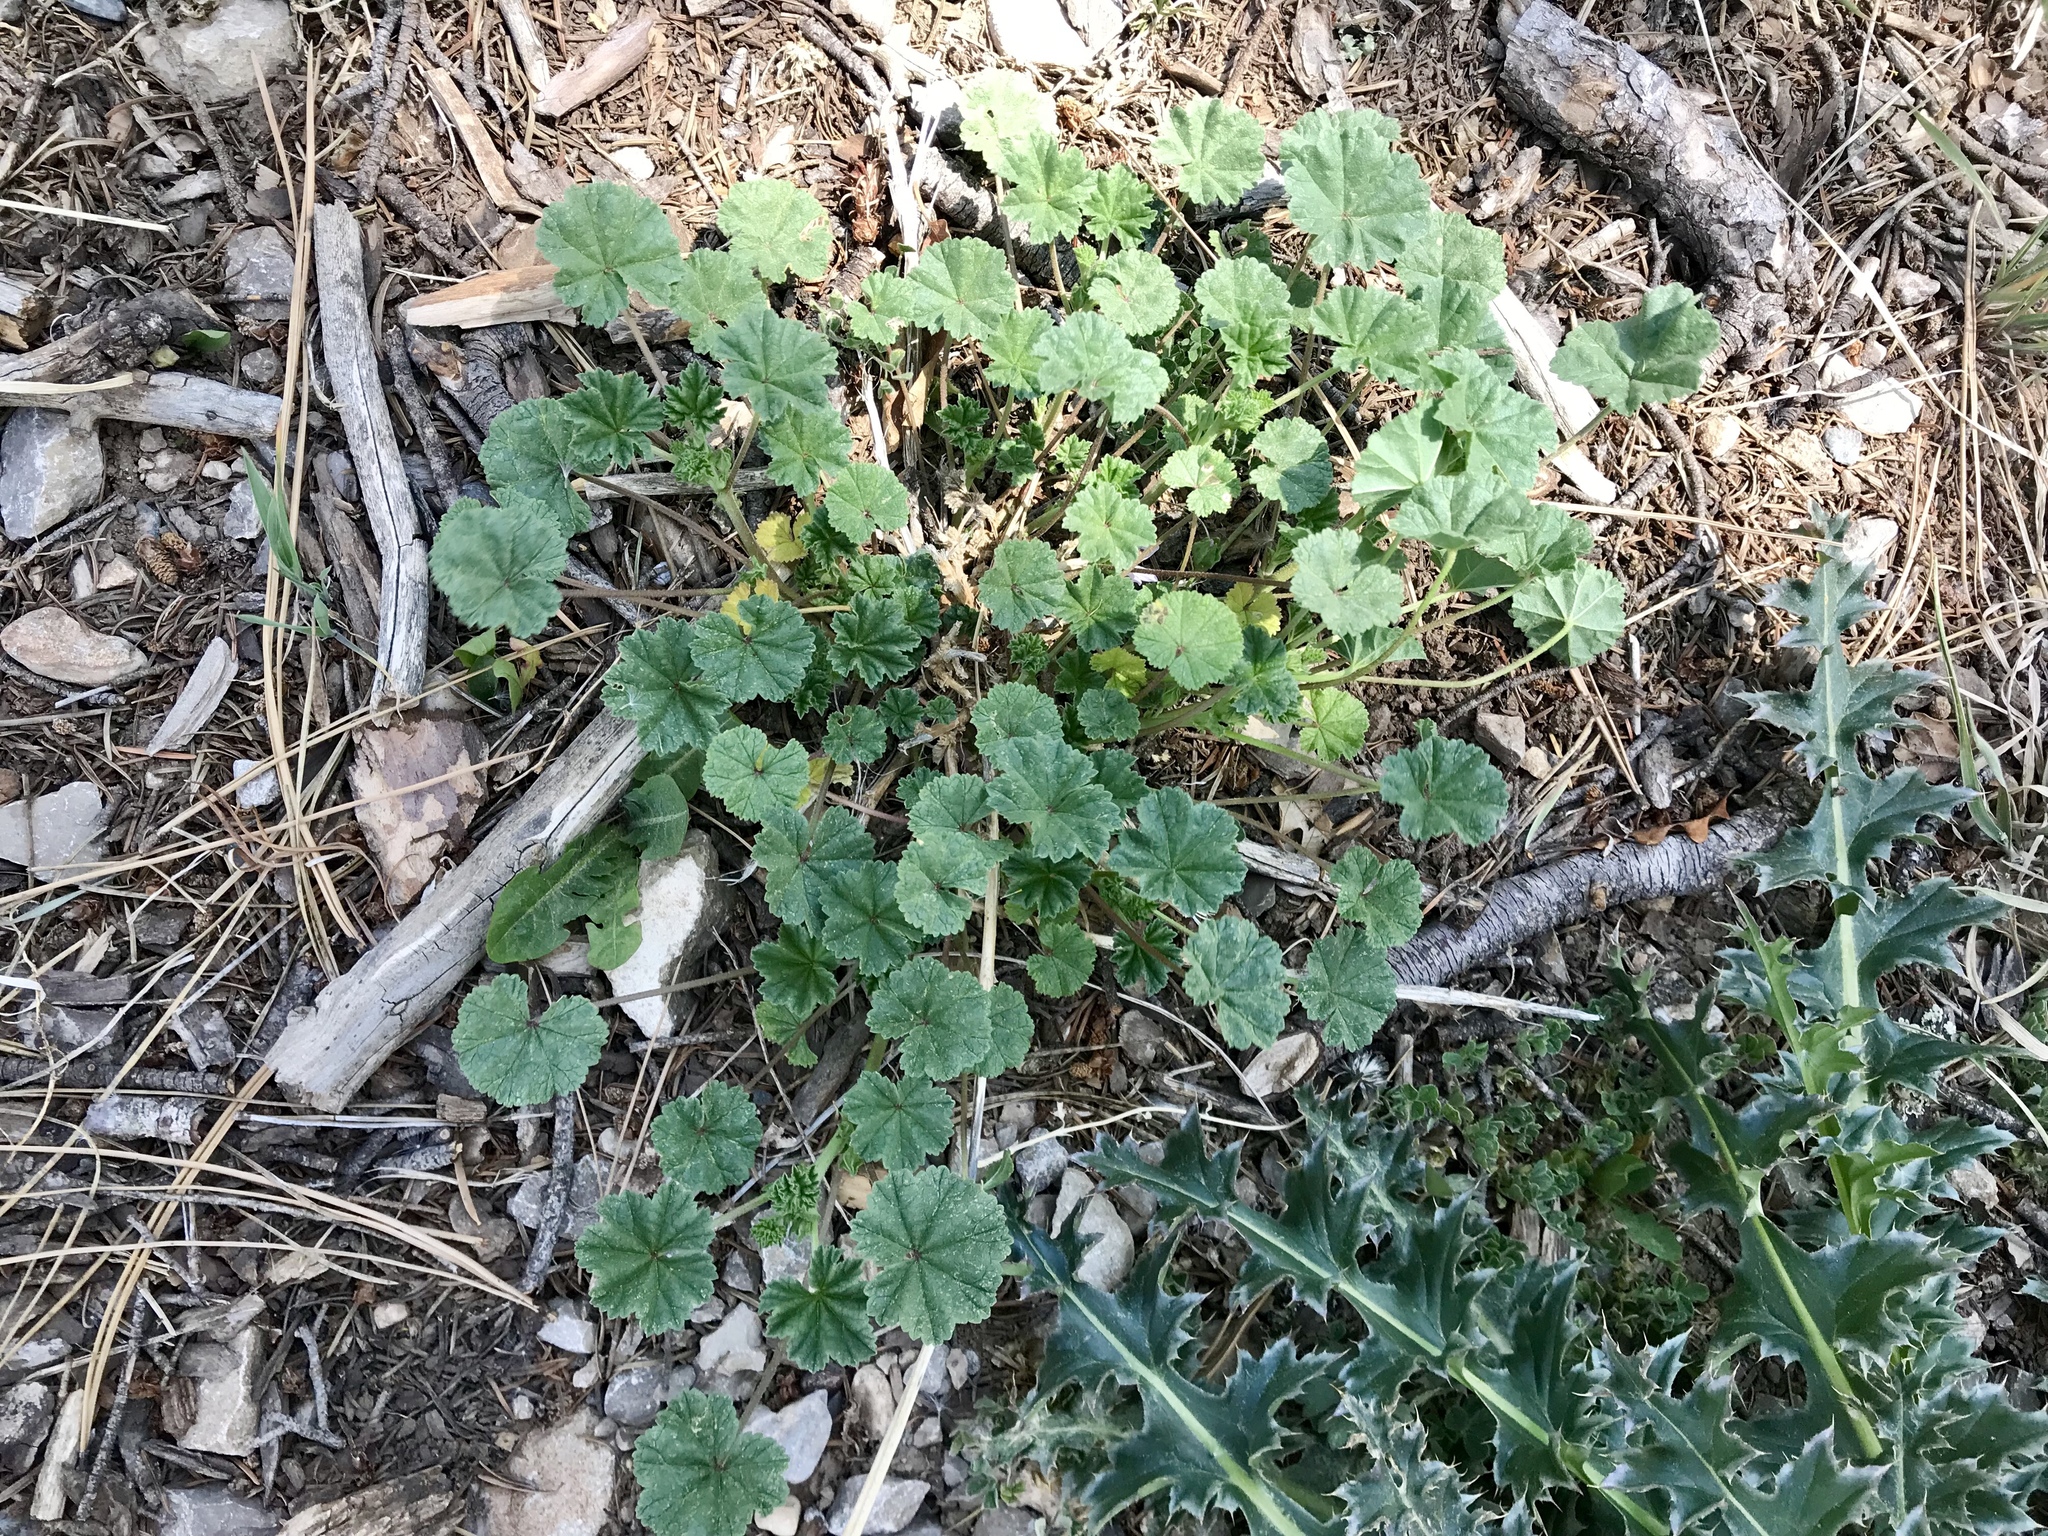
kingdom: Plantae
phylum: Tracheophyta
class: Magnoliopsida
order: Malvales
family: Malvaceae
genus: Malva
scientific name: Malva neglecta
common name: Common mallow
